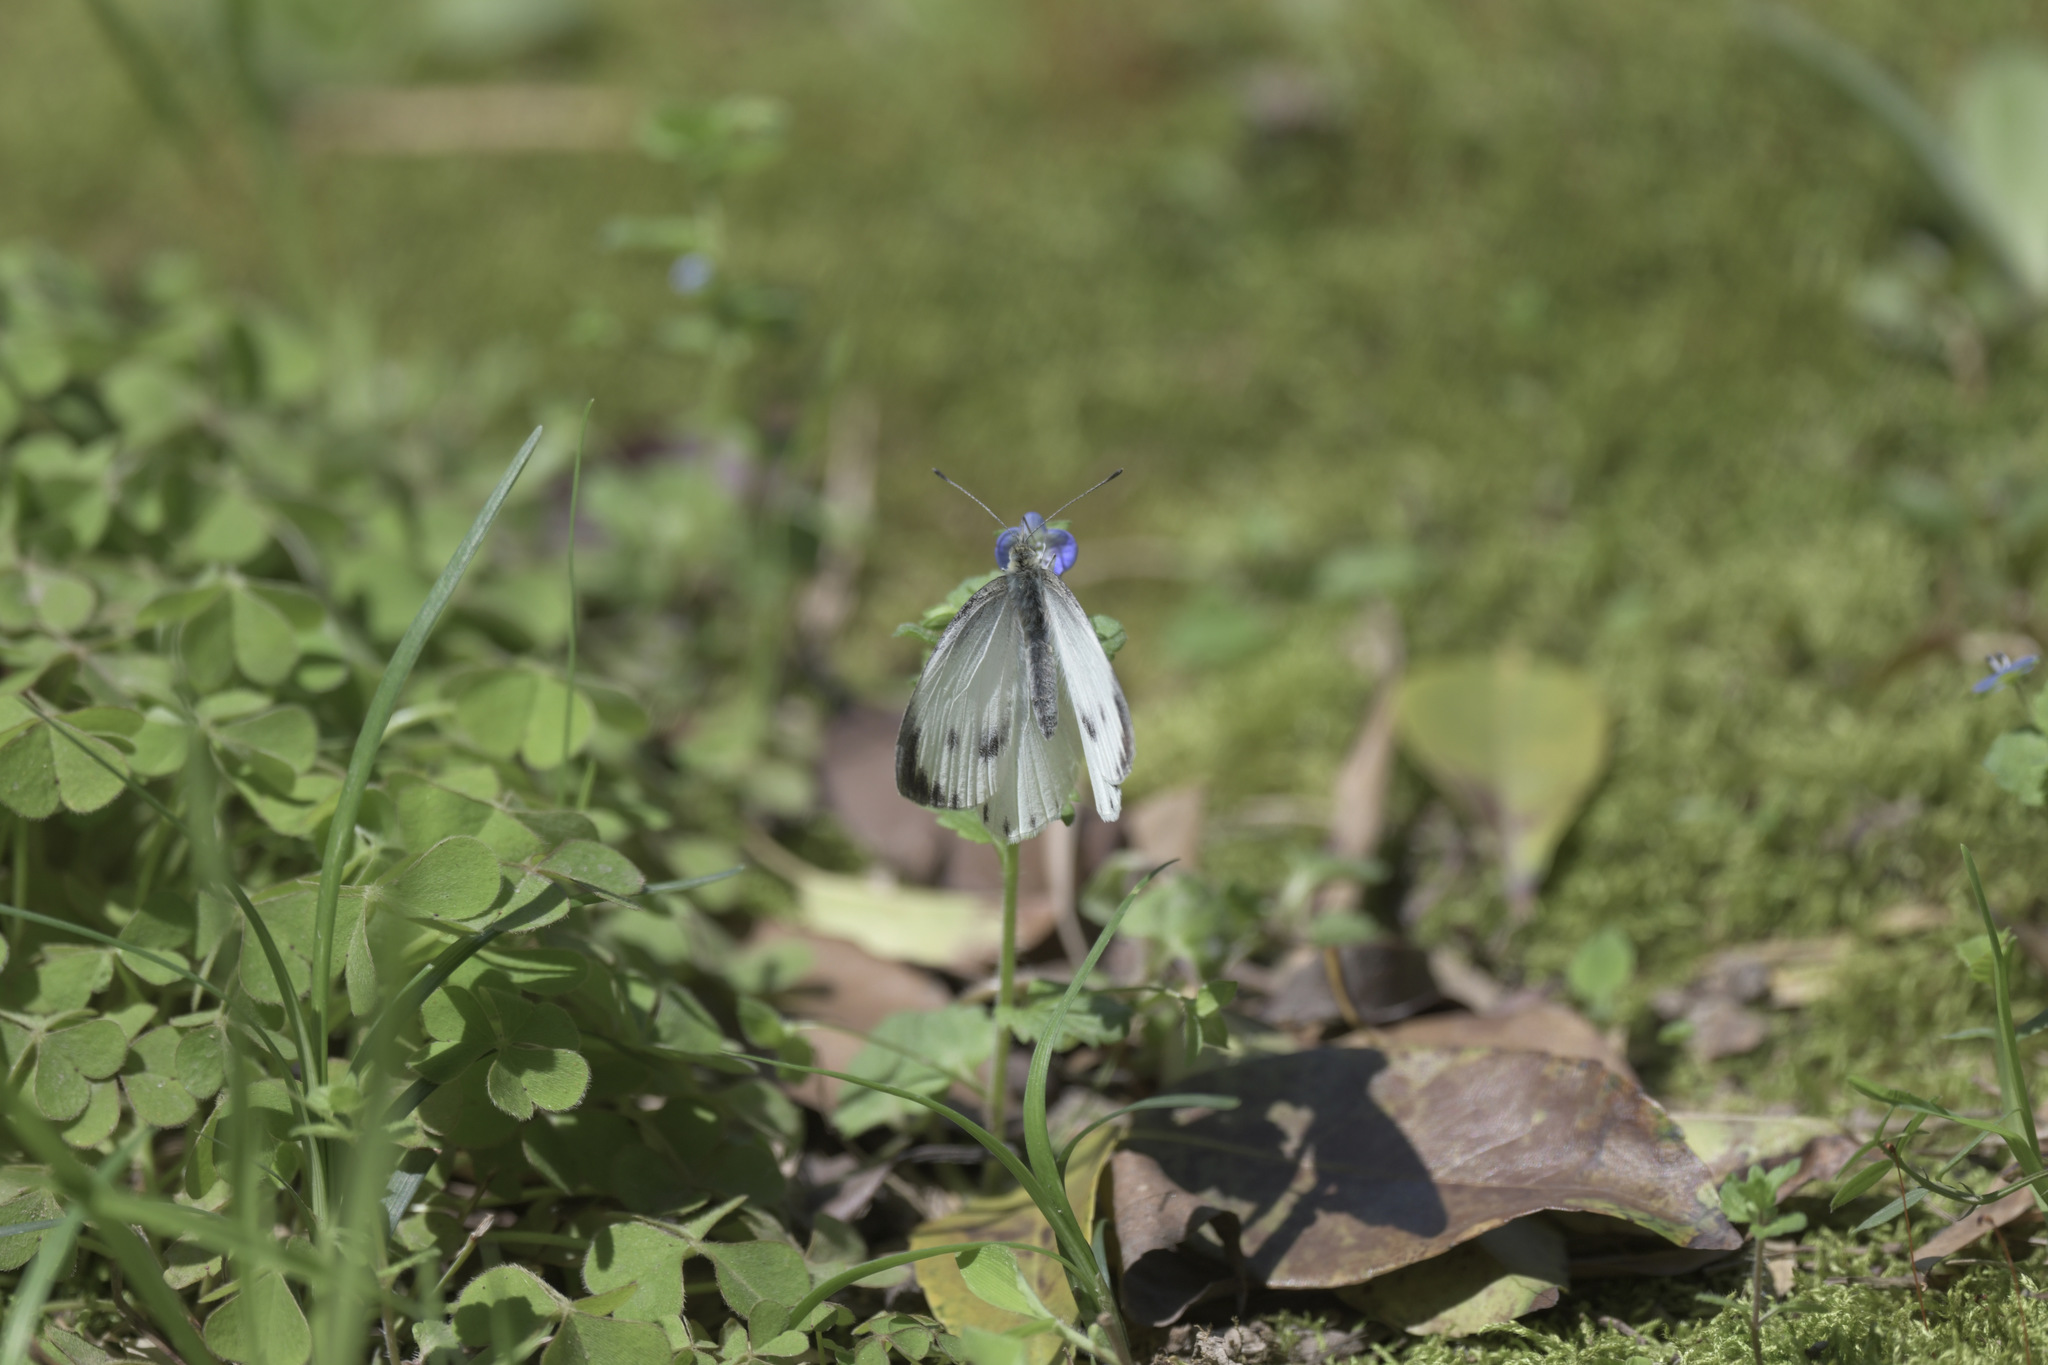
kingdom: Animalia
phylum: Arthropoda
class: Insecta
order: Lepidoptera
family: Pieridae
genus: Pieris
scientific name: Pieris canidia
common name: Indian cabbage white
